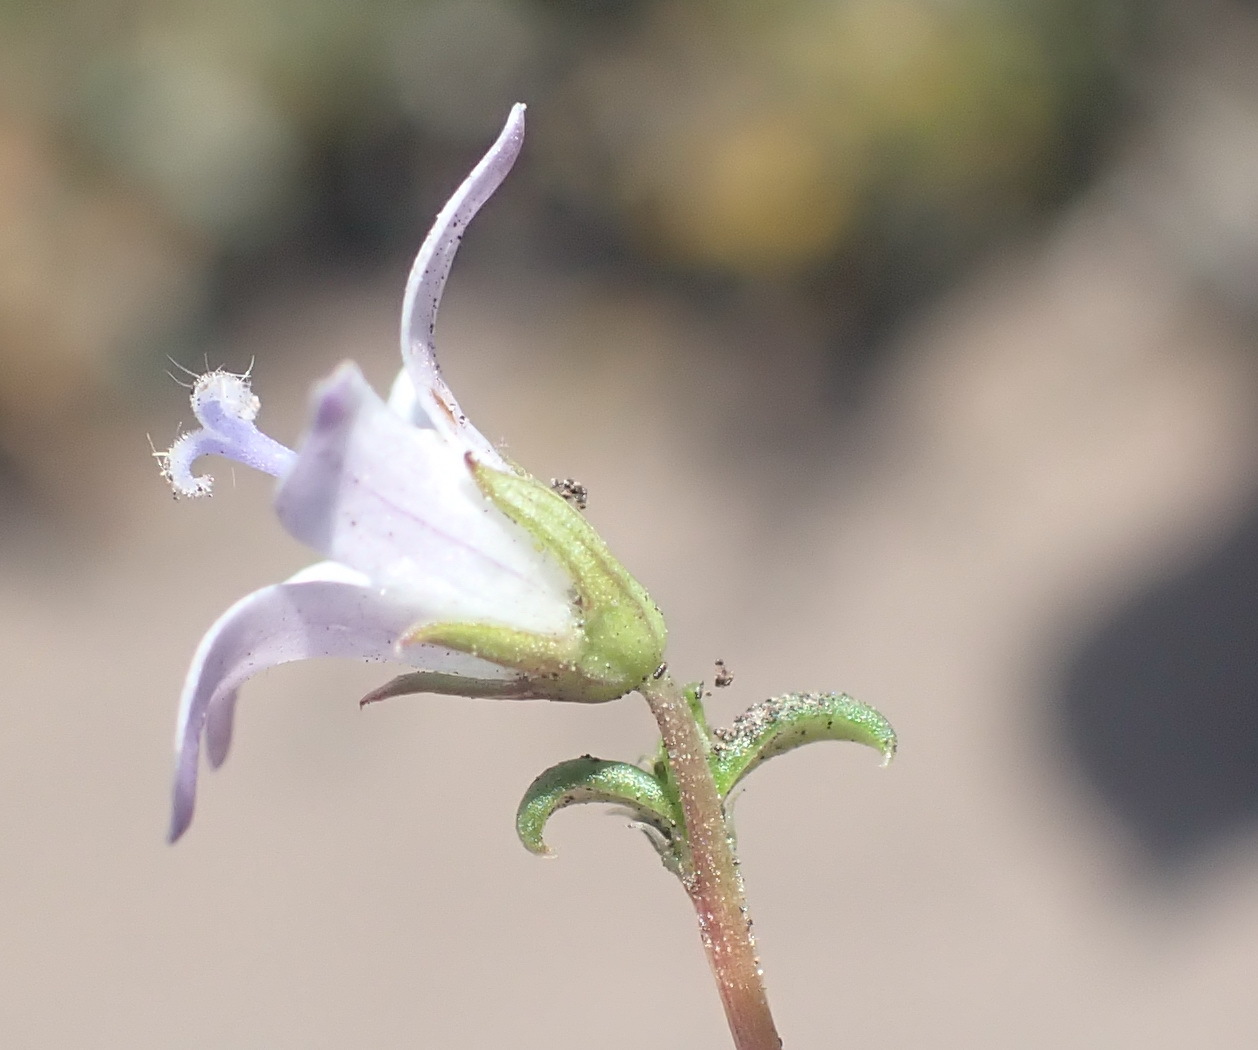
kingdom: Plantae
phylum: Tracheophyta
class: Magnoliopsida
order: Asterales
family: Campanulaceae
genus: Wahlenbergia
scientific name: Wahlenbergia thunbergii
